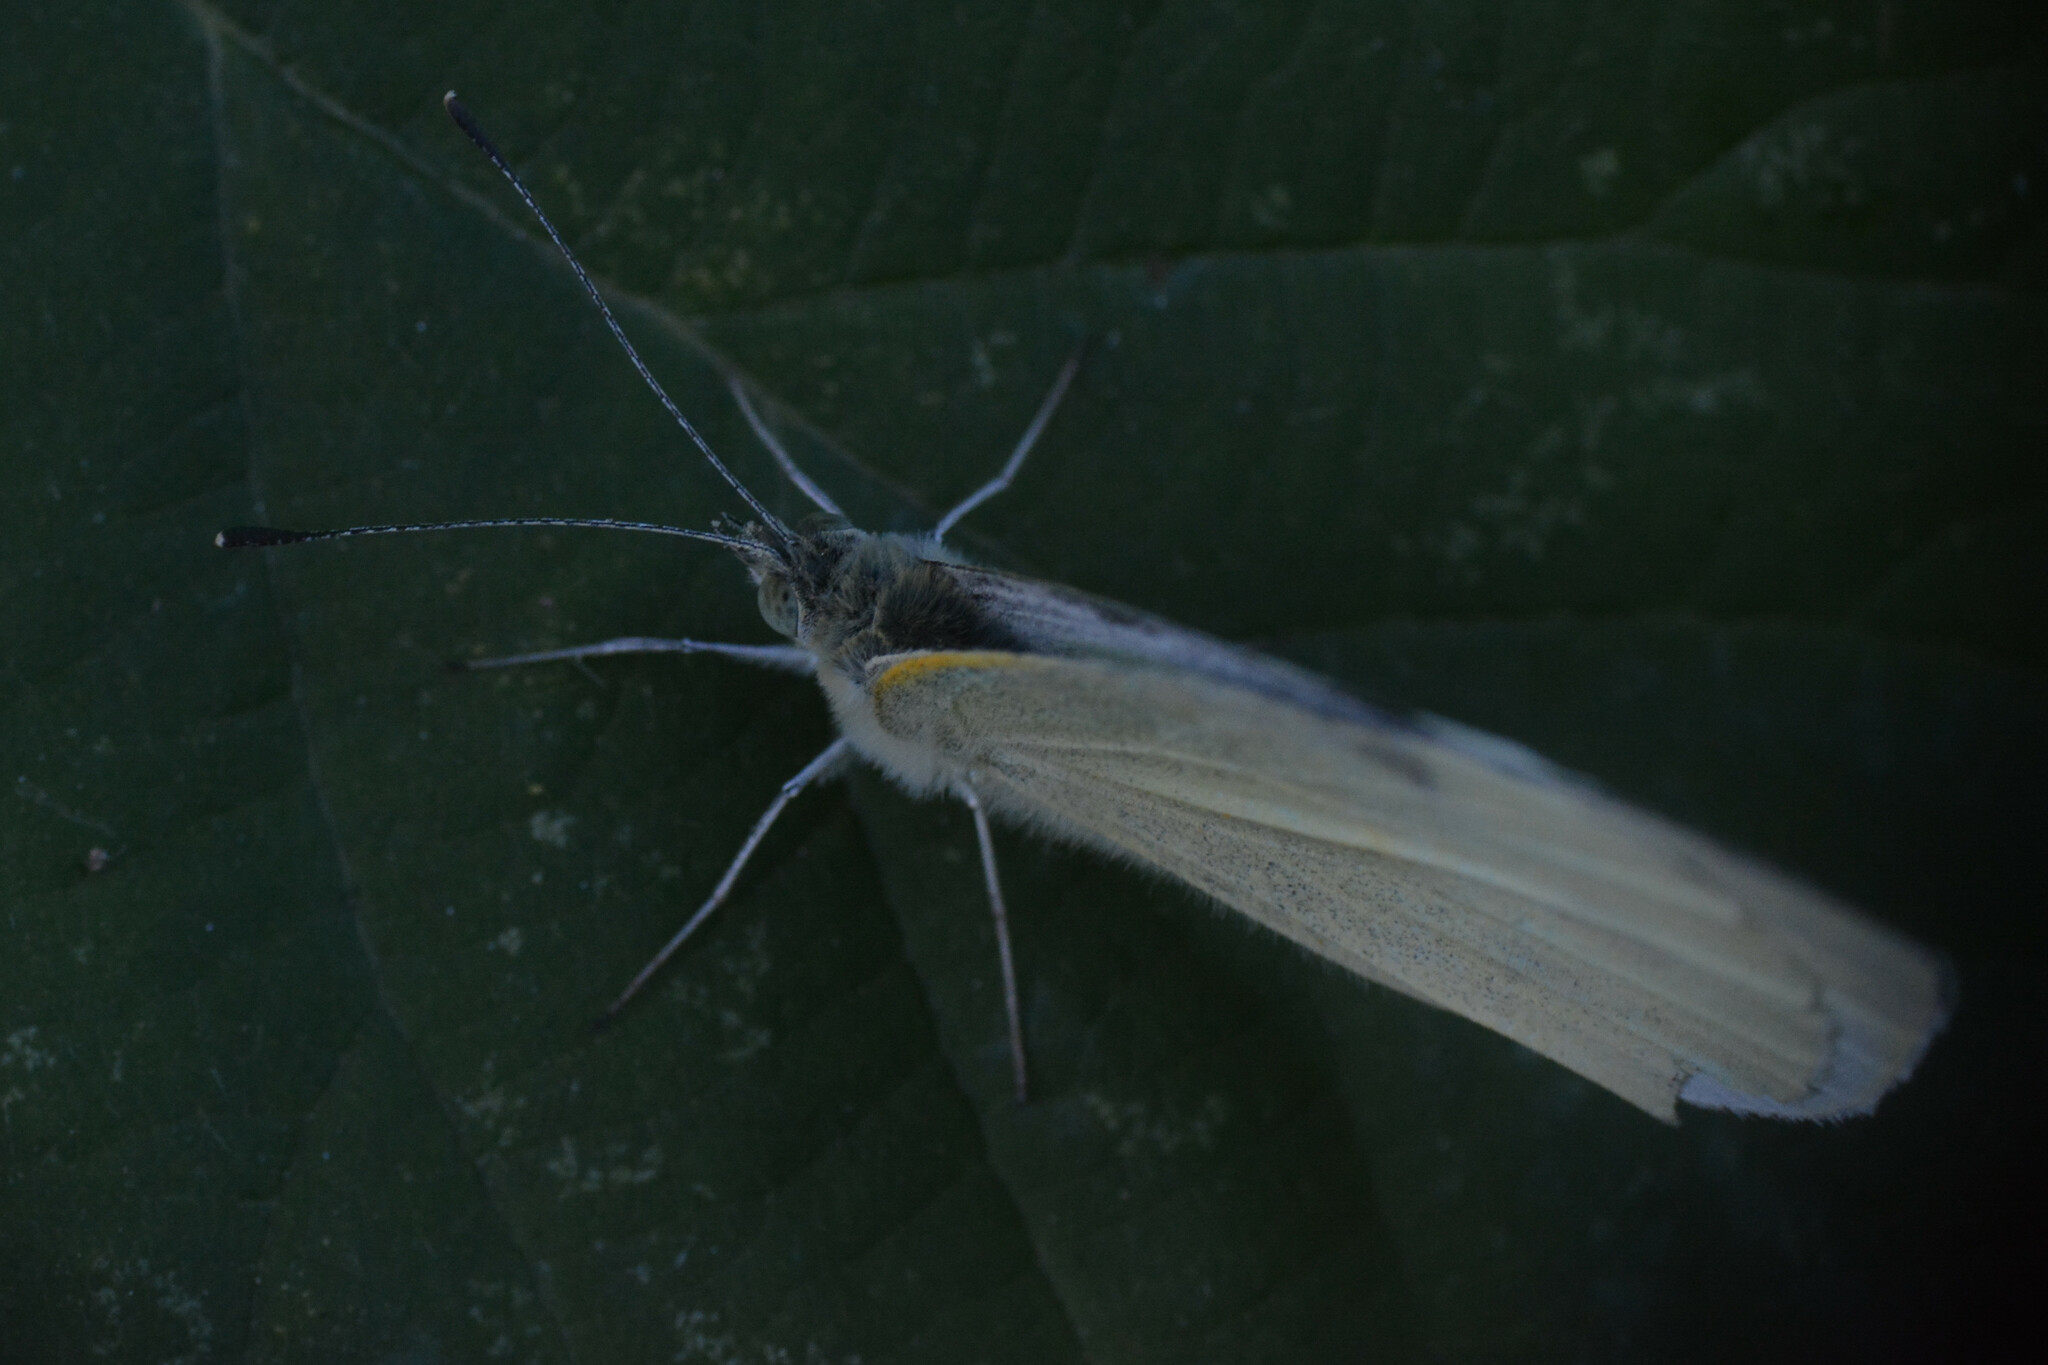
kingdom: Animalia
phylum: Arthropoda
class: Insecta
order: Lepidoptera
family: Pieridae
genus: Pieris
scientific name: Pieris rapae
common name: Small white
